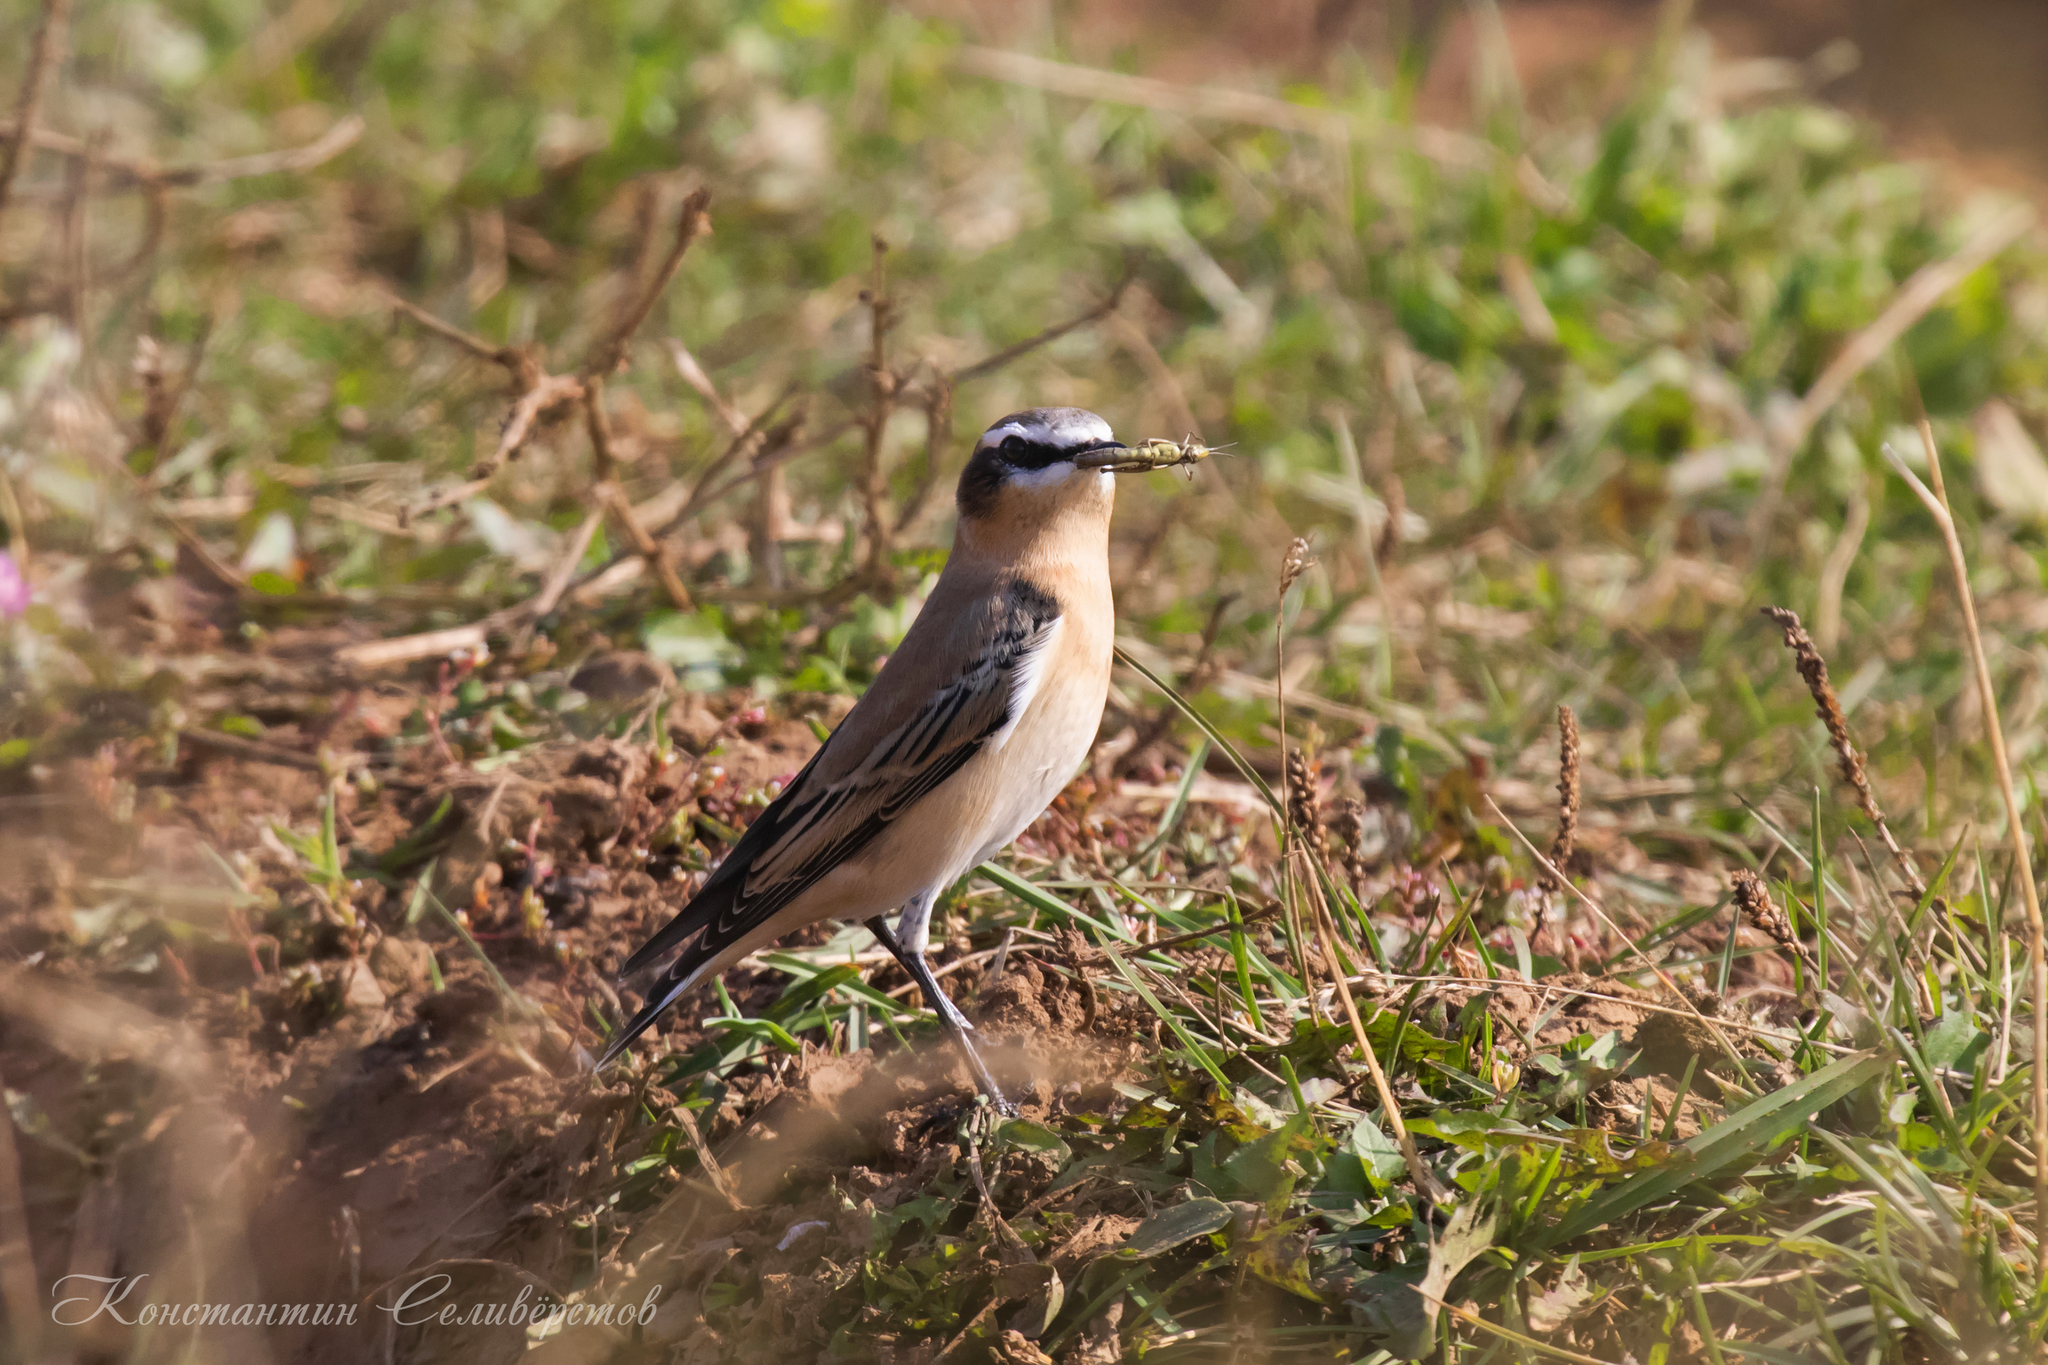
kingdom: Animalia
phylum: Chordata
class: Aves
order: Passeriformes
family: Muscicapidae
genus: Oenanthe
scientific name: Oenanthe oenanthe
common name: Northern wheatear
